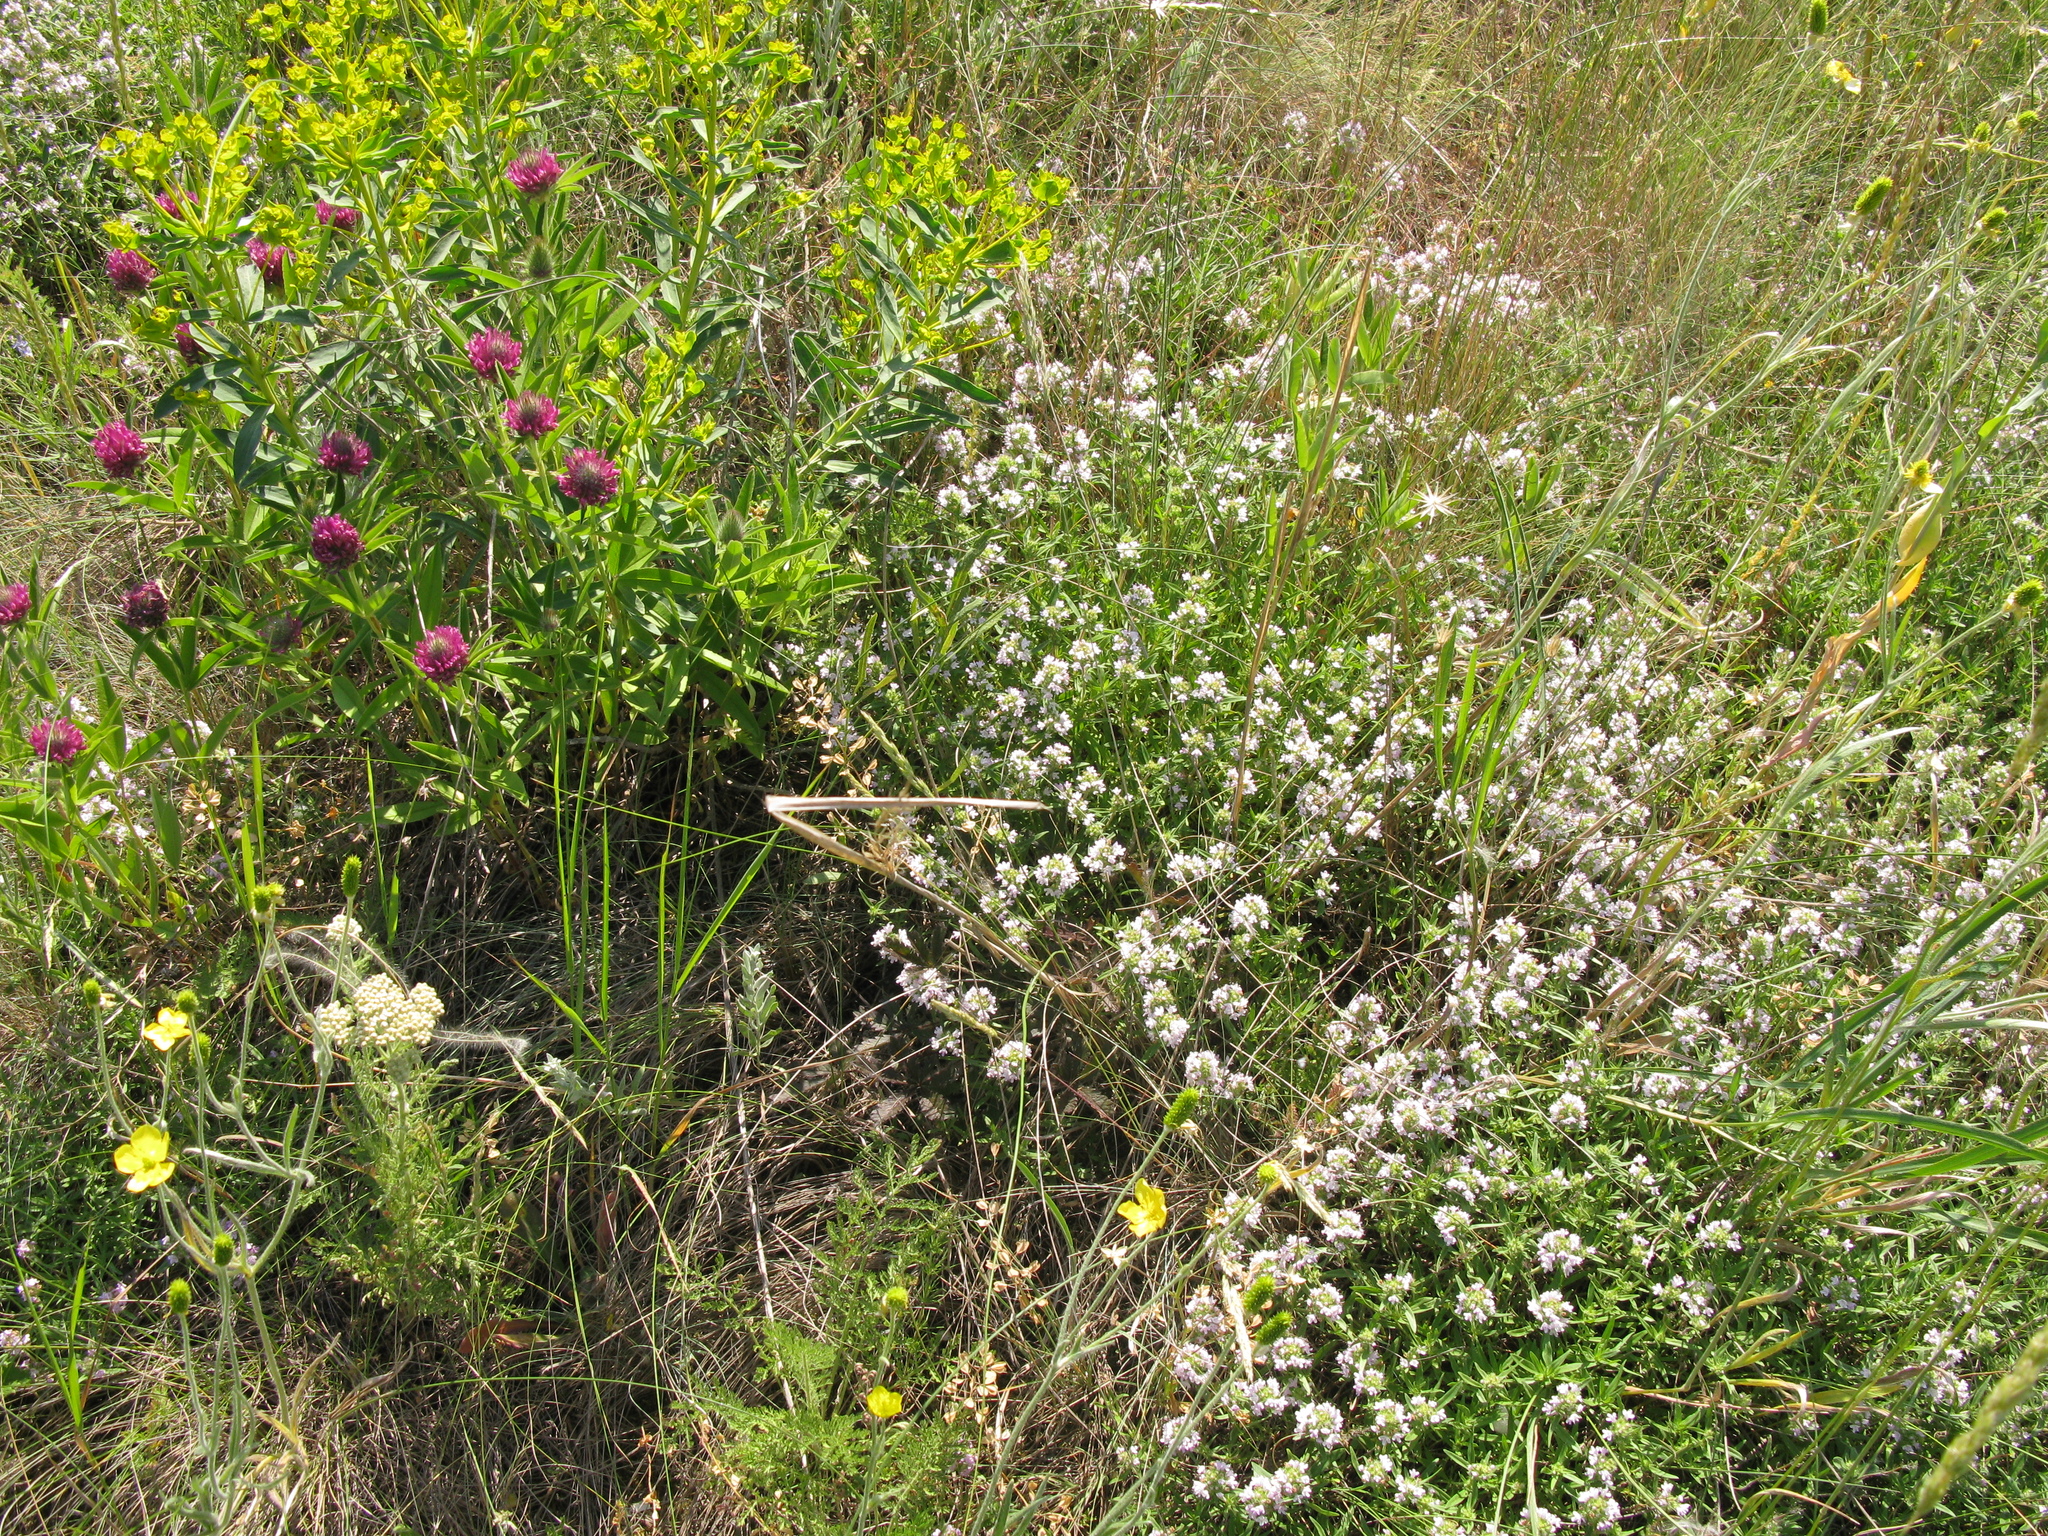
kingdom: Plantae
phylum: Tracheophyta
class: Magnoliopsida
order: Fabales
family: Fabaceae
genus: Trifolium
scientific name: Trifolium alpestre
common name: Owl-head clover
